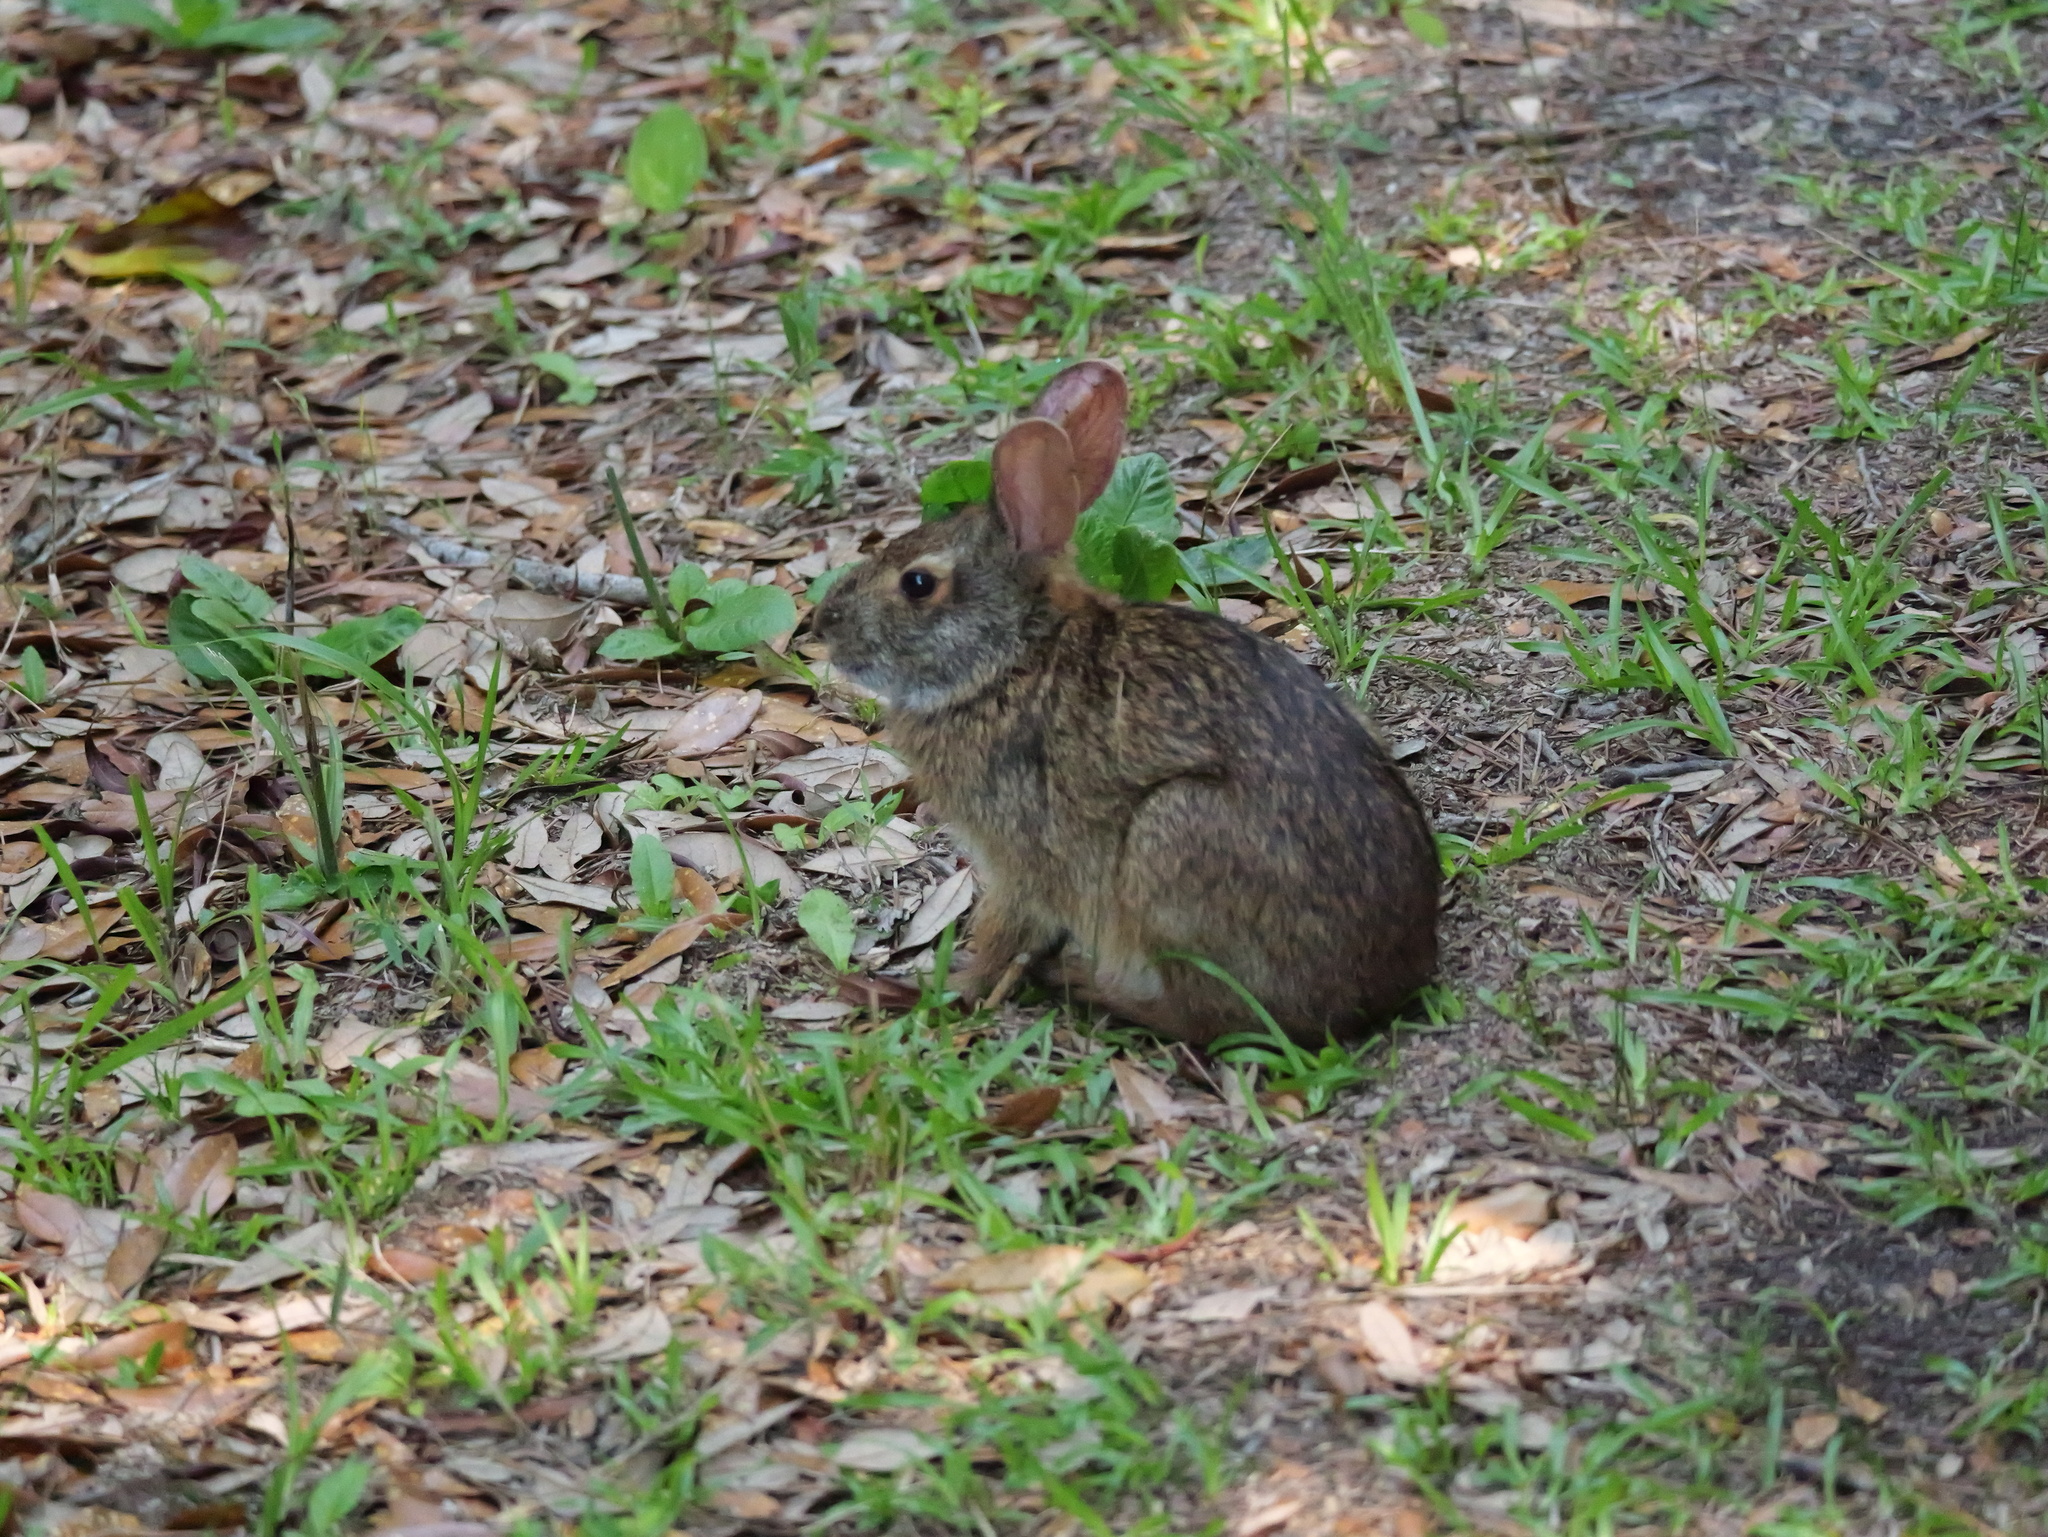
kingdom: Animalia
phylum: Chordata
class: Mammalia
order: Lagomorpha
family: Leporidae
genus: Sylvilagus
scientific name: Sylvilagus palustris
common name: Marsh rabbit
